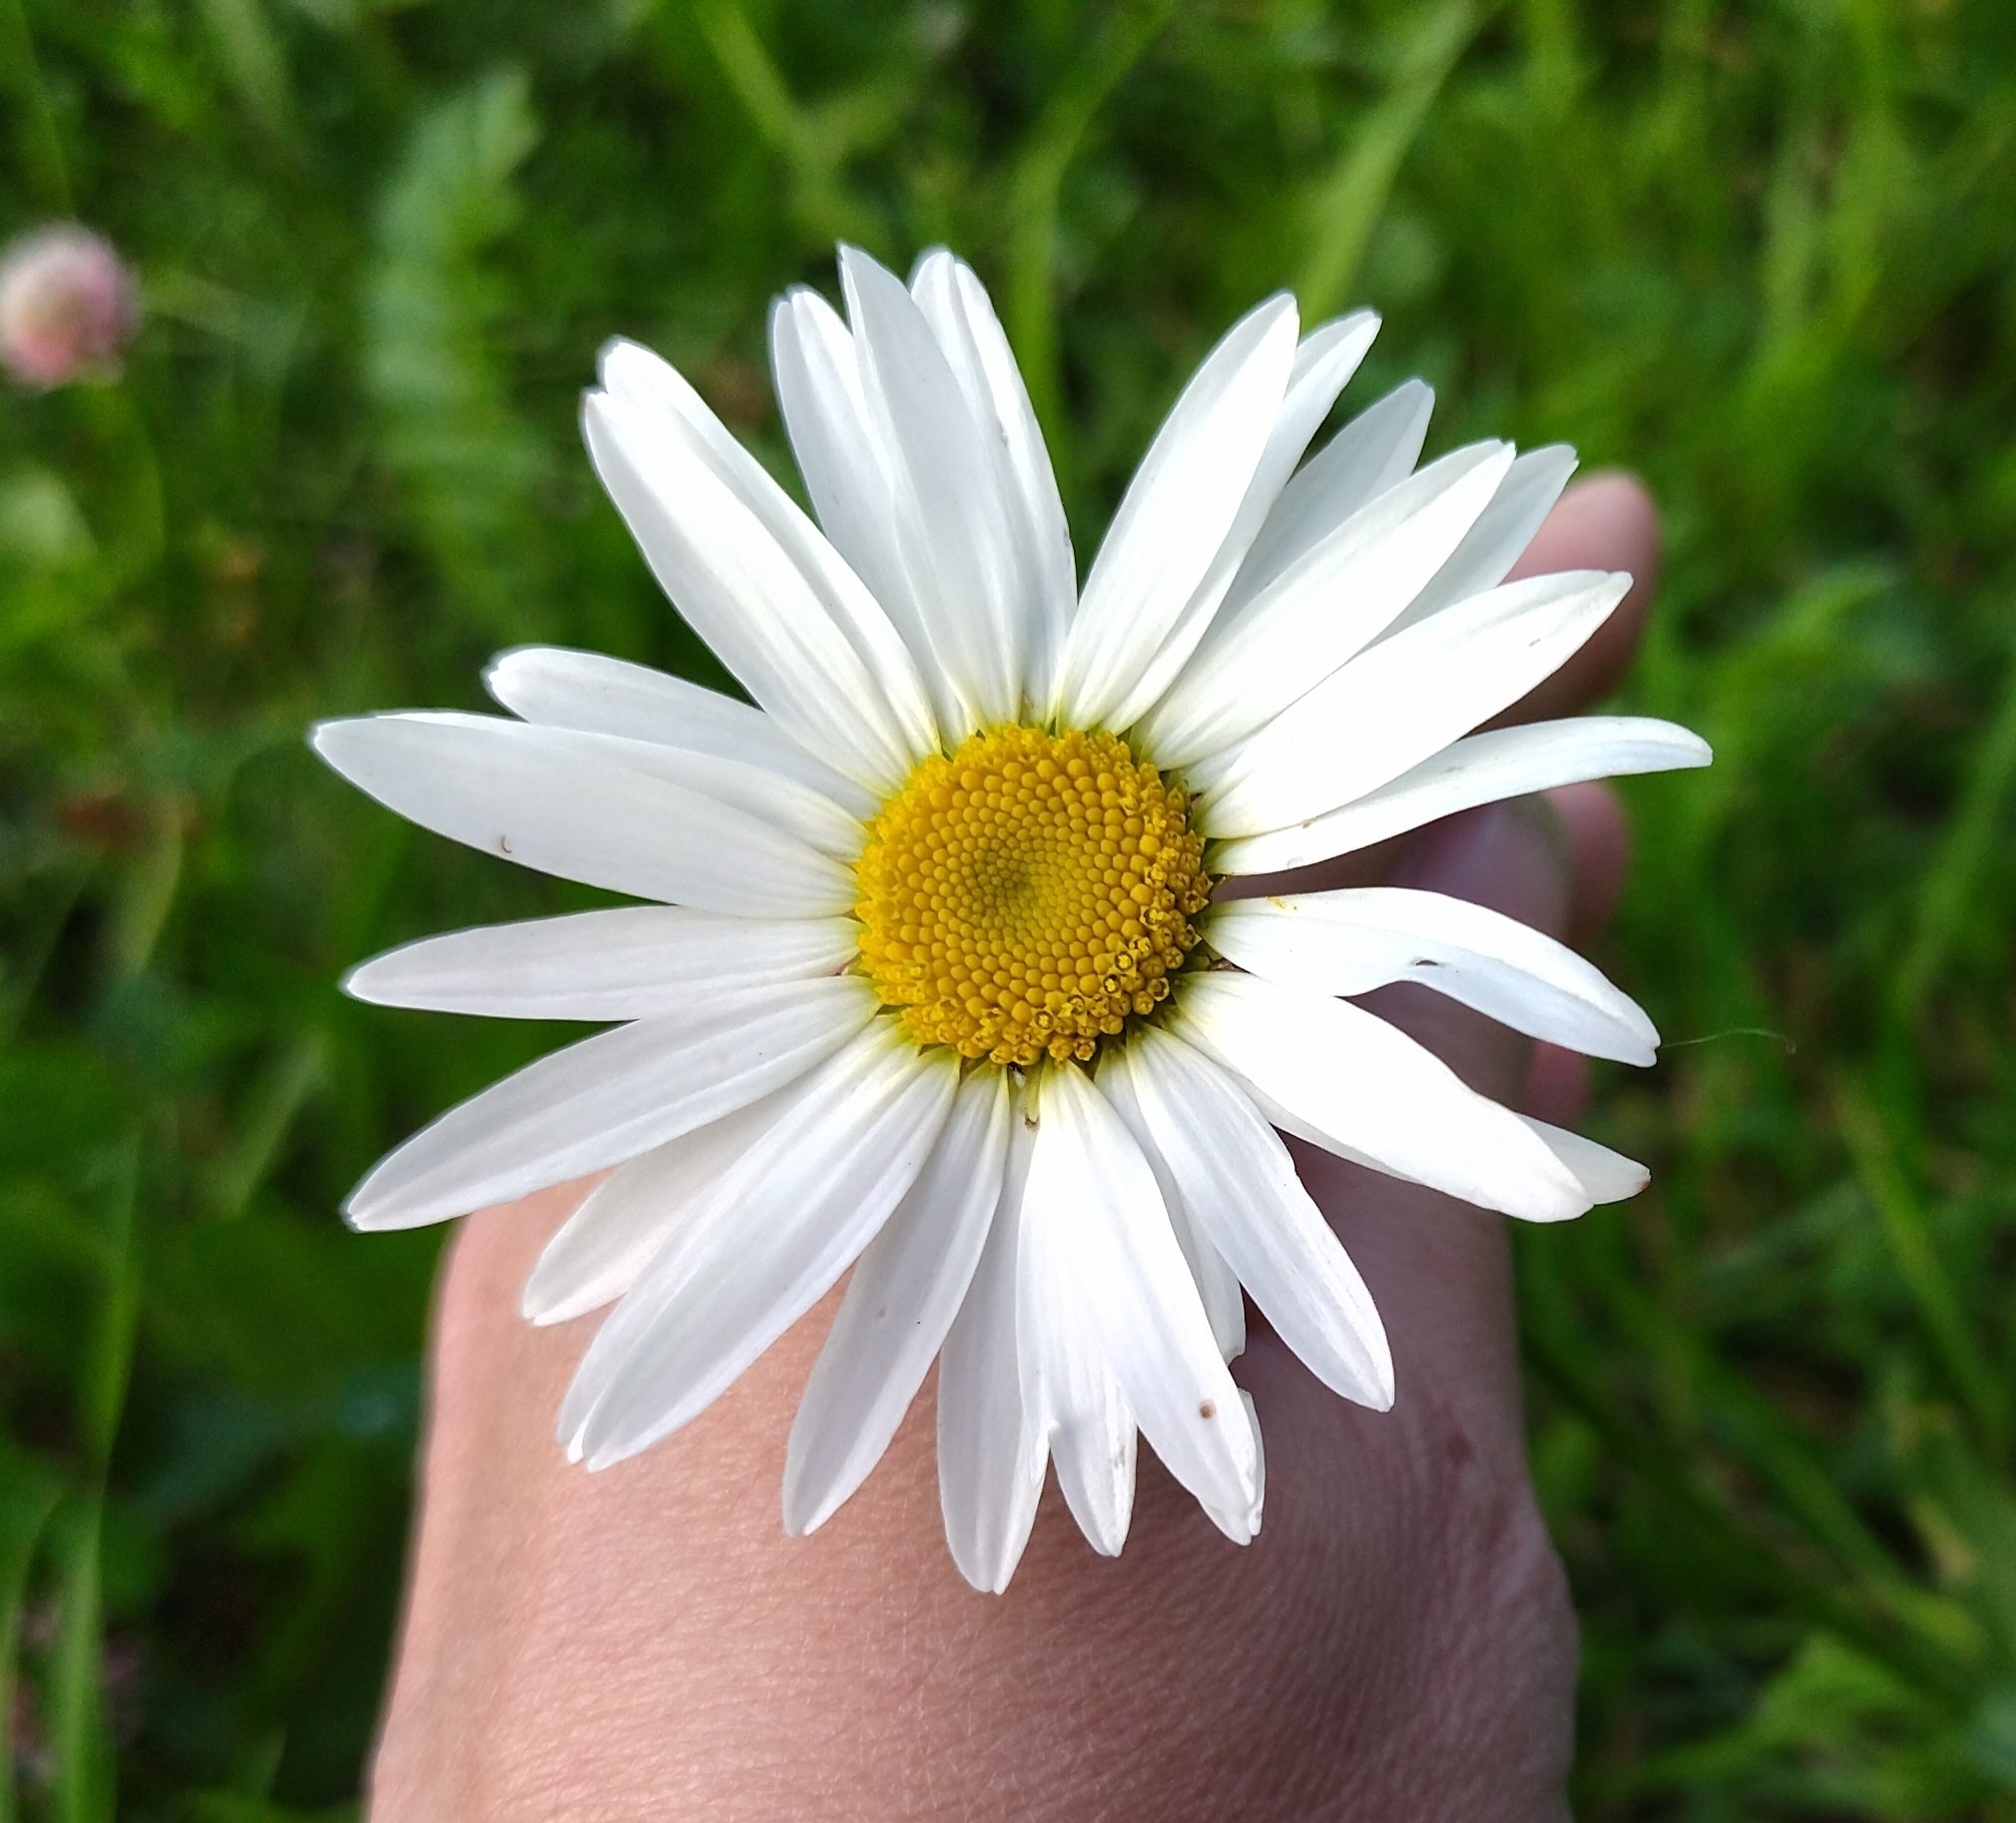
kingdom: Plantae
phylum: Tracheophyta
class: Magnoliopsida
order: Asterales
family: Asteraceae
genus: Leucanthemum
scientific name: Leucanthemum vulgare
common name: Oxeye daisy
